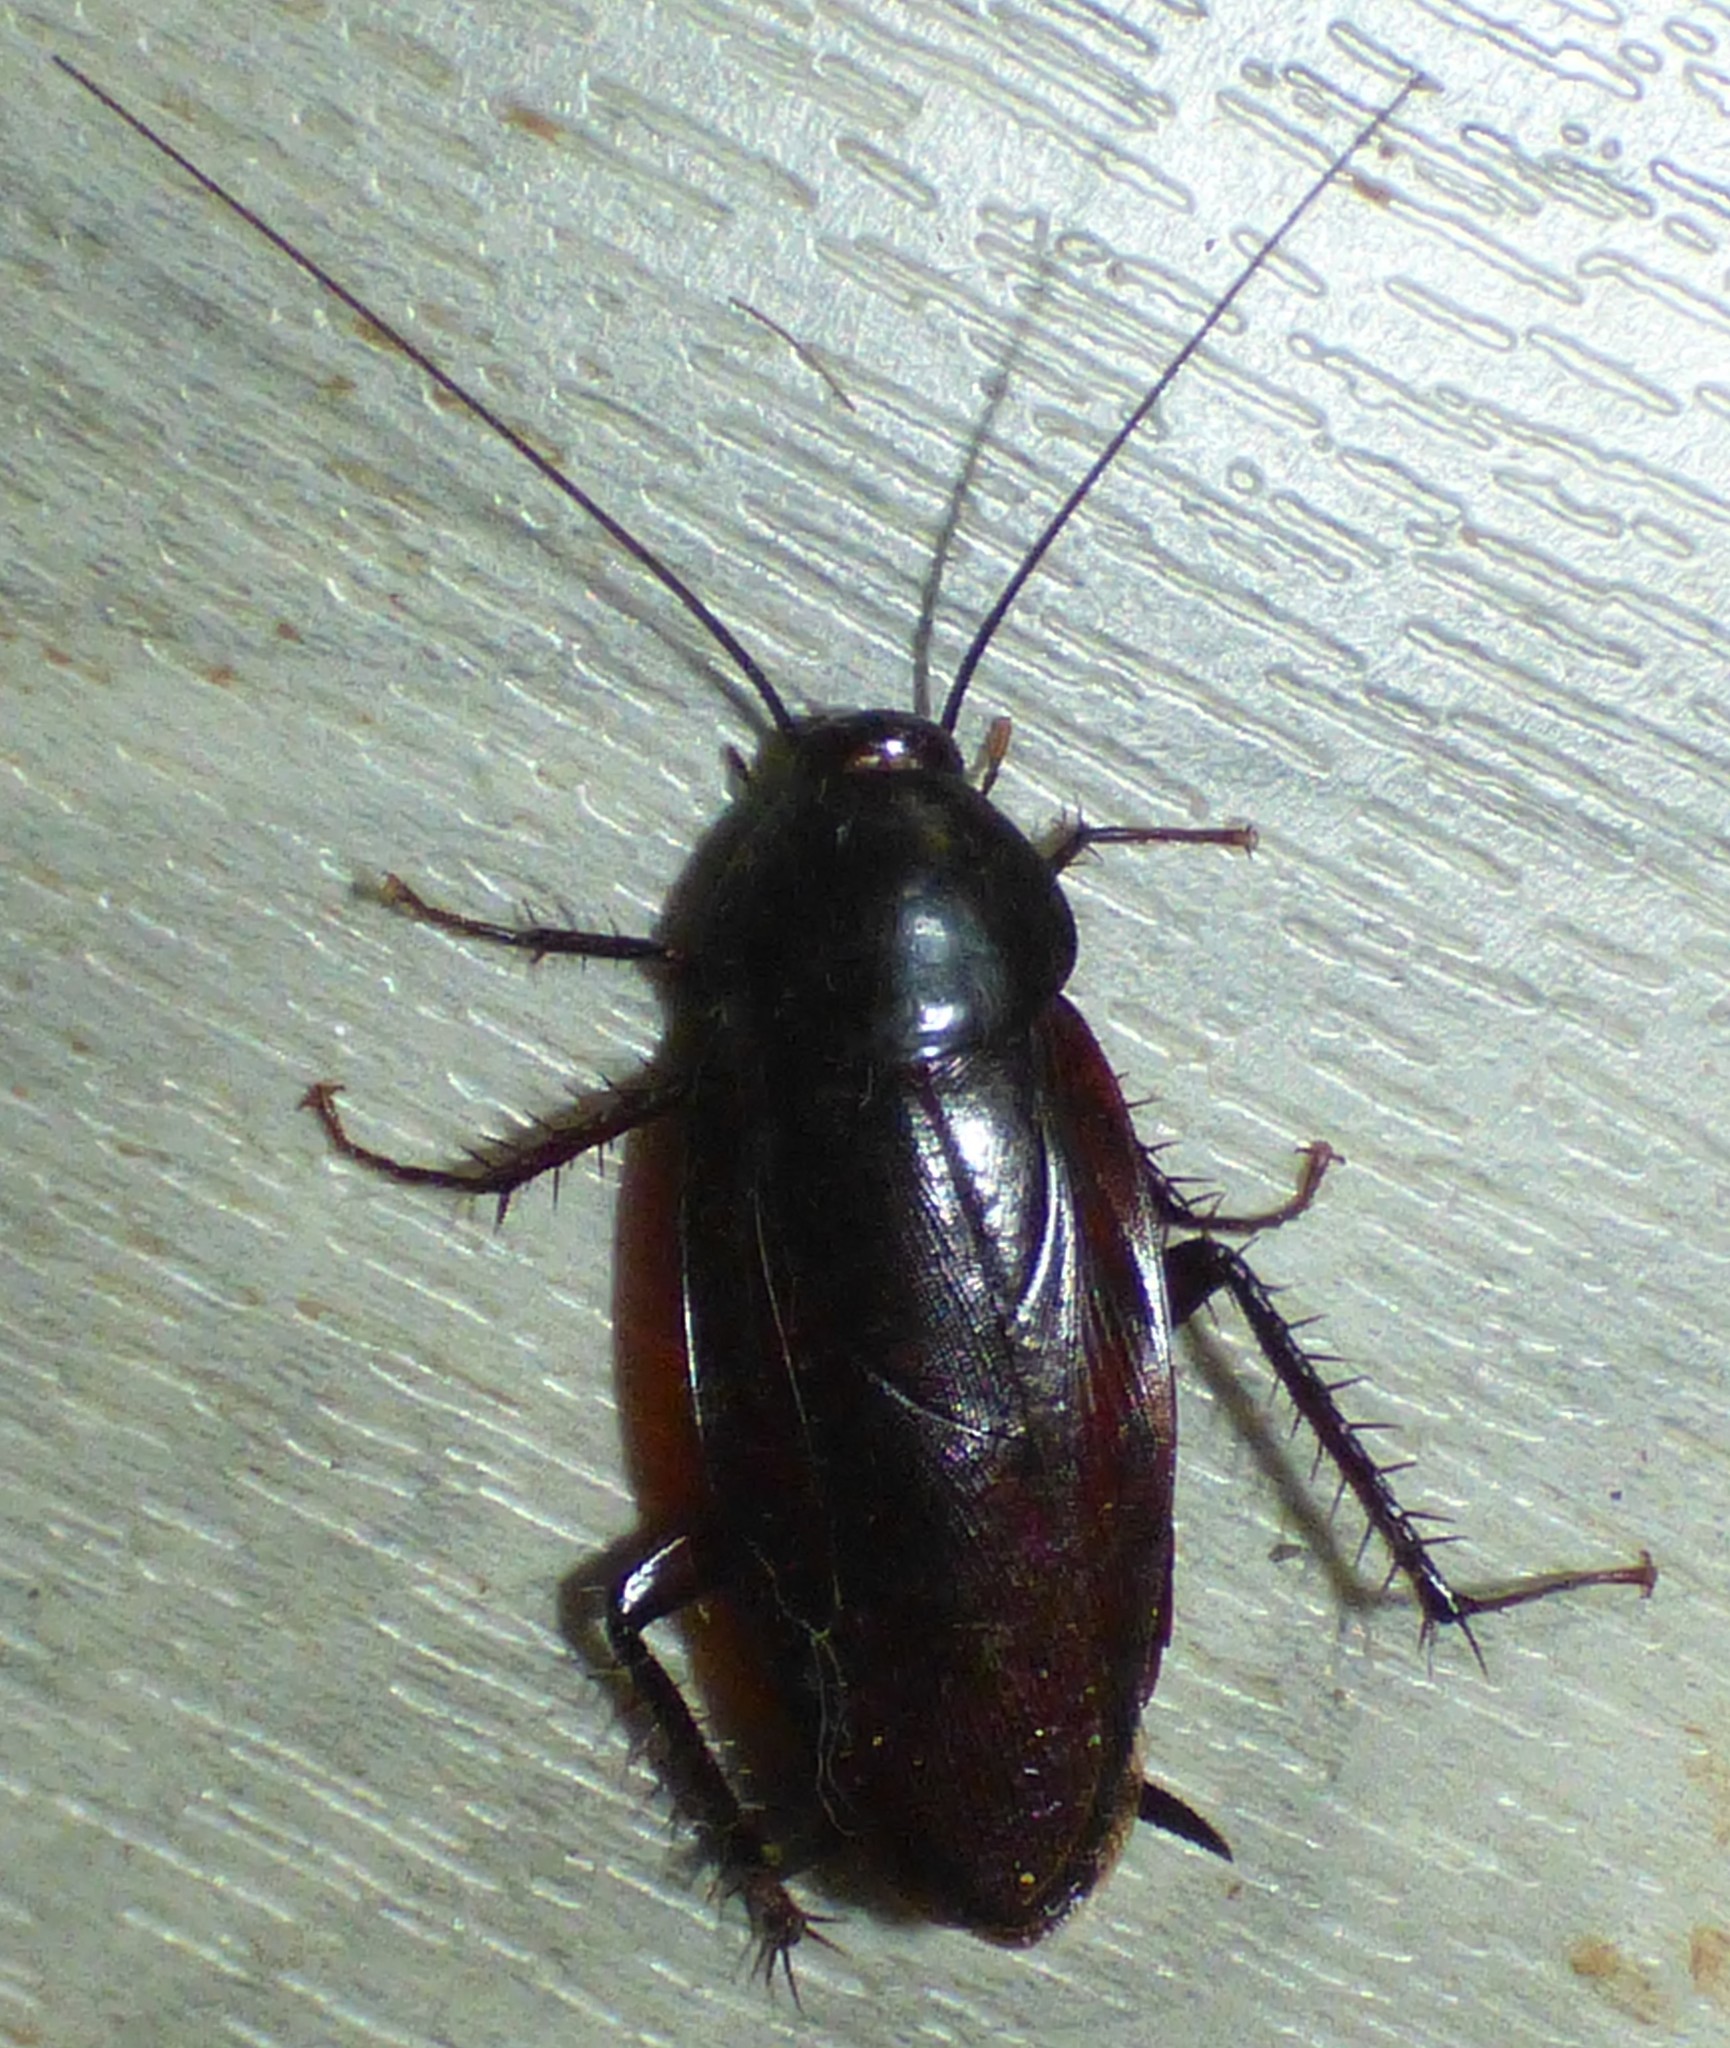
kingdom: Animalia
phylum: Arthropoda
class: Insecta
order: Blattodea
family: Blattidae
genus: Periplaneta
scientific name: Periplaneta fuliginosa
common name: Smokeybrown cockroad
